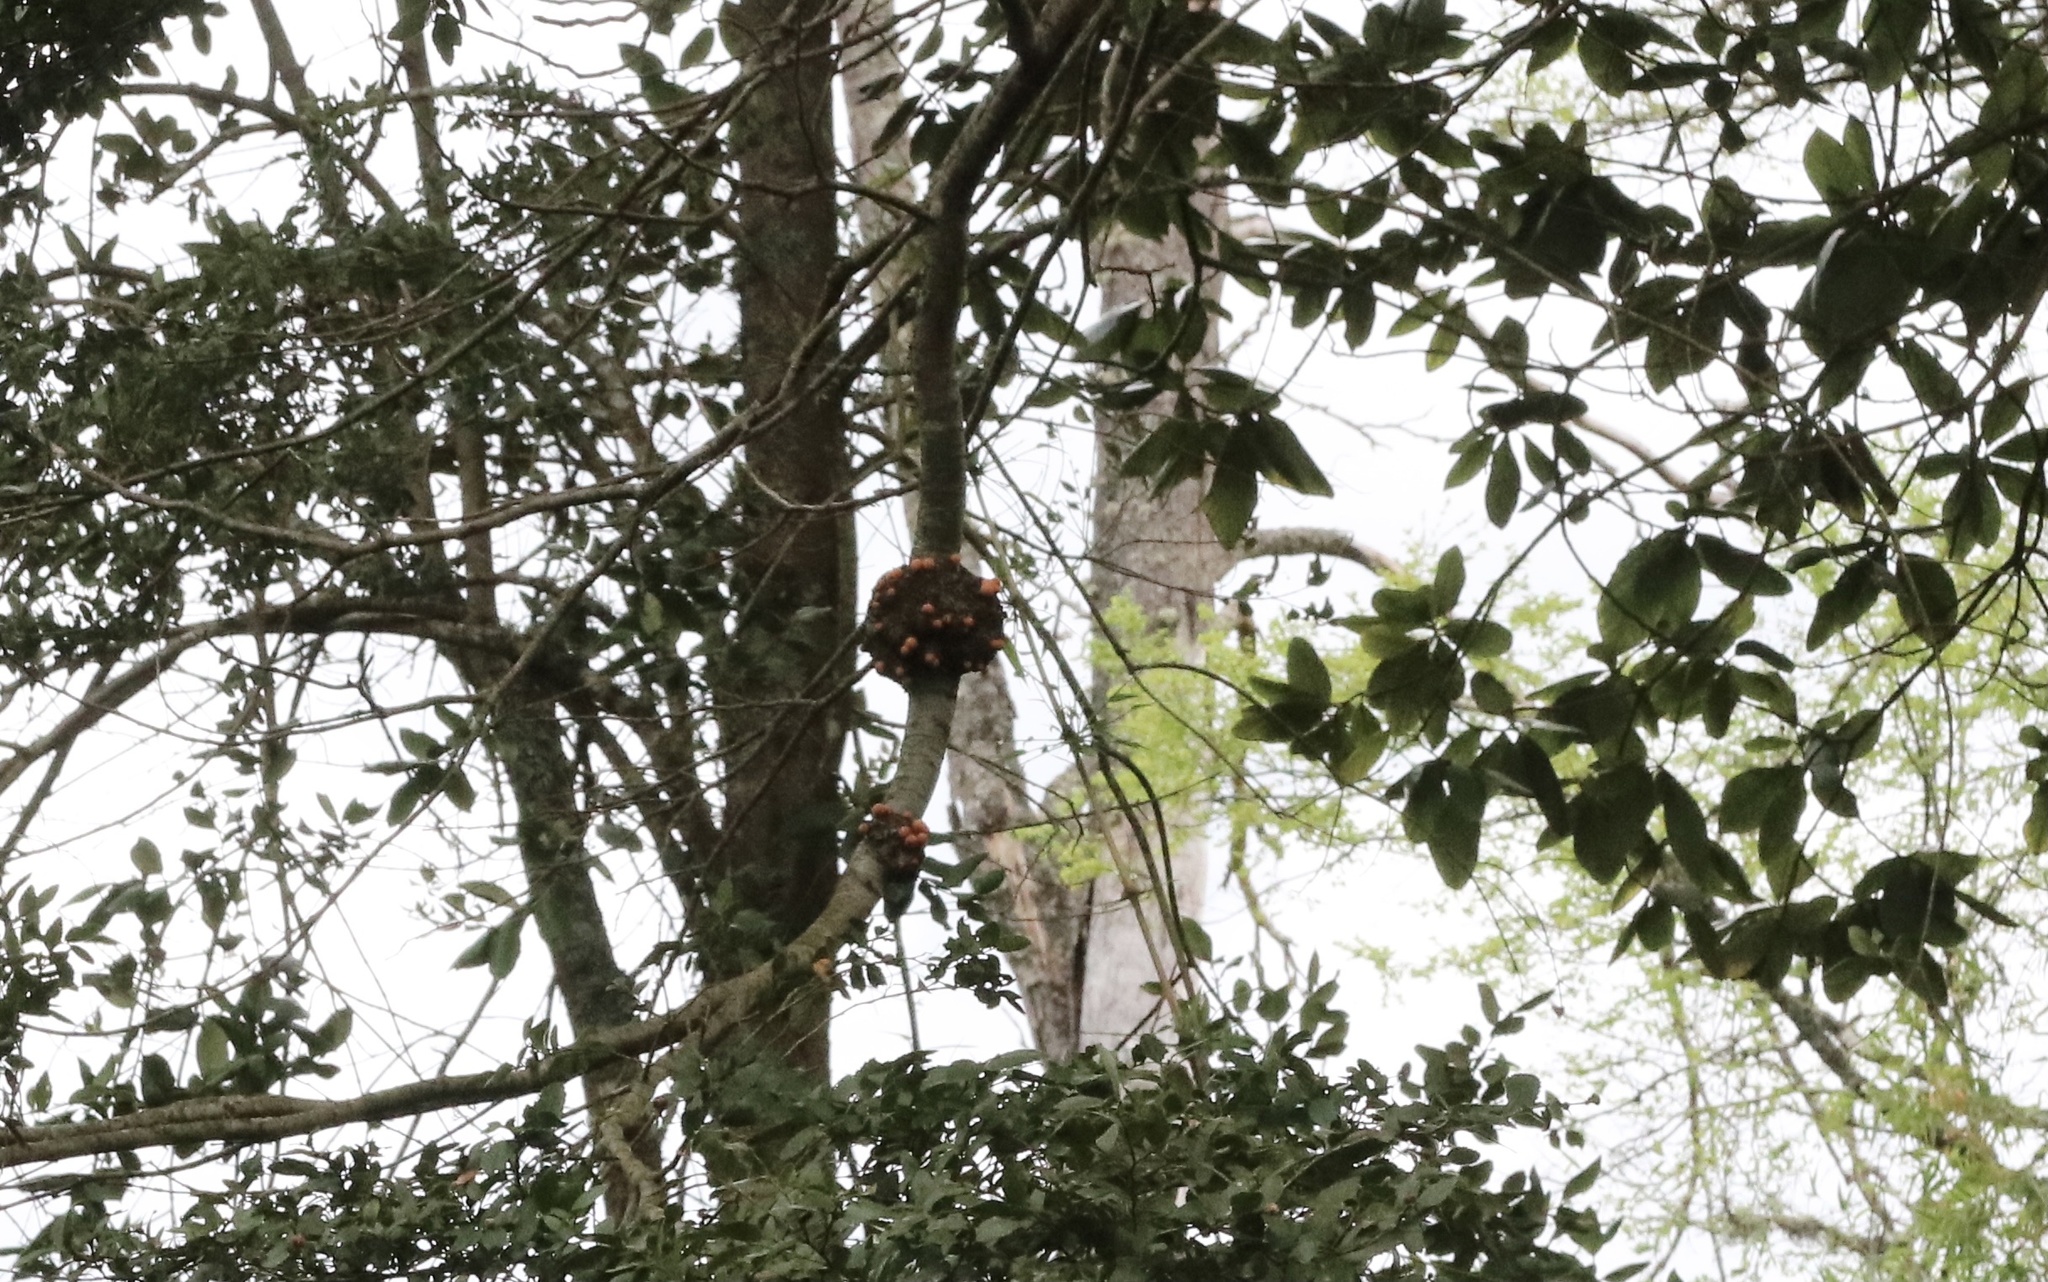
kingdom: Fungi
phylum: Ascomycota
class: Leotiomycetes
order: Cyttariales
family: Cyttariaceae
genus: Cyttaria
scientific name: Cyttaria hariotii
